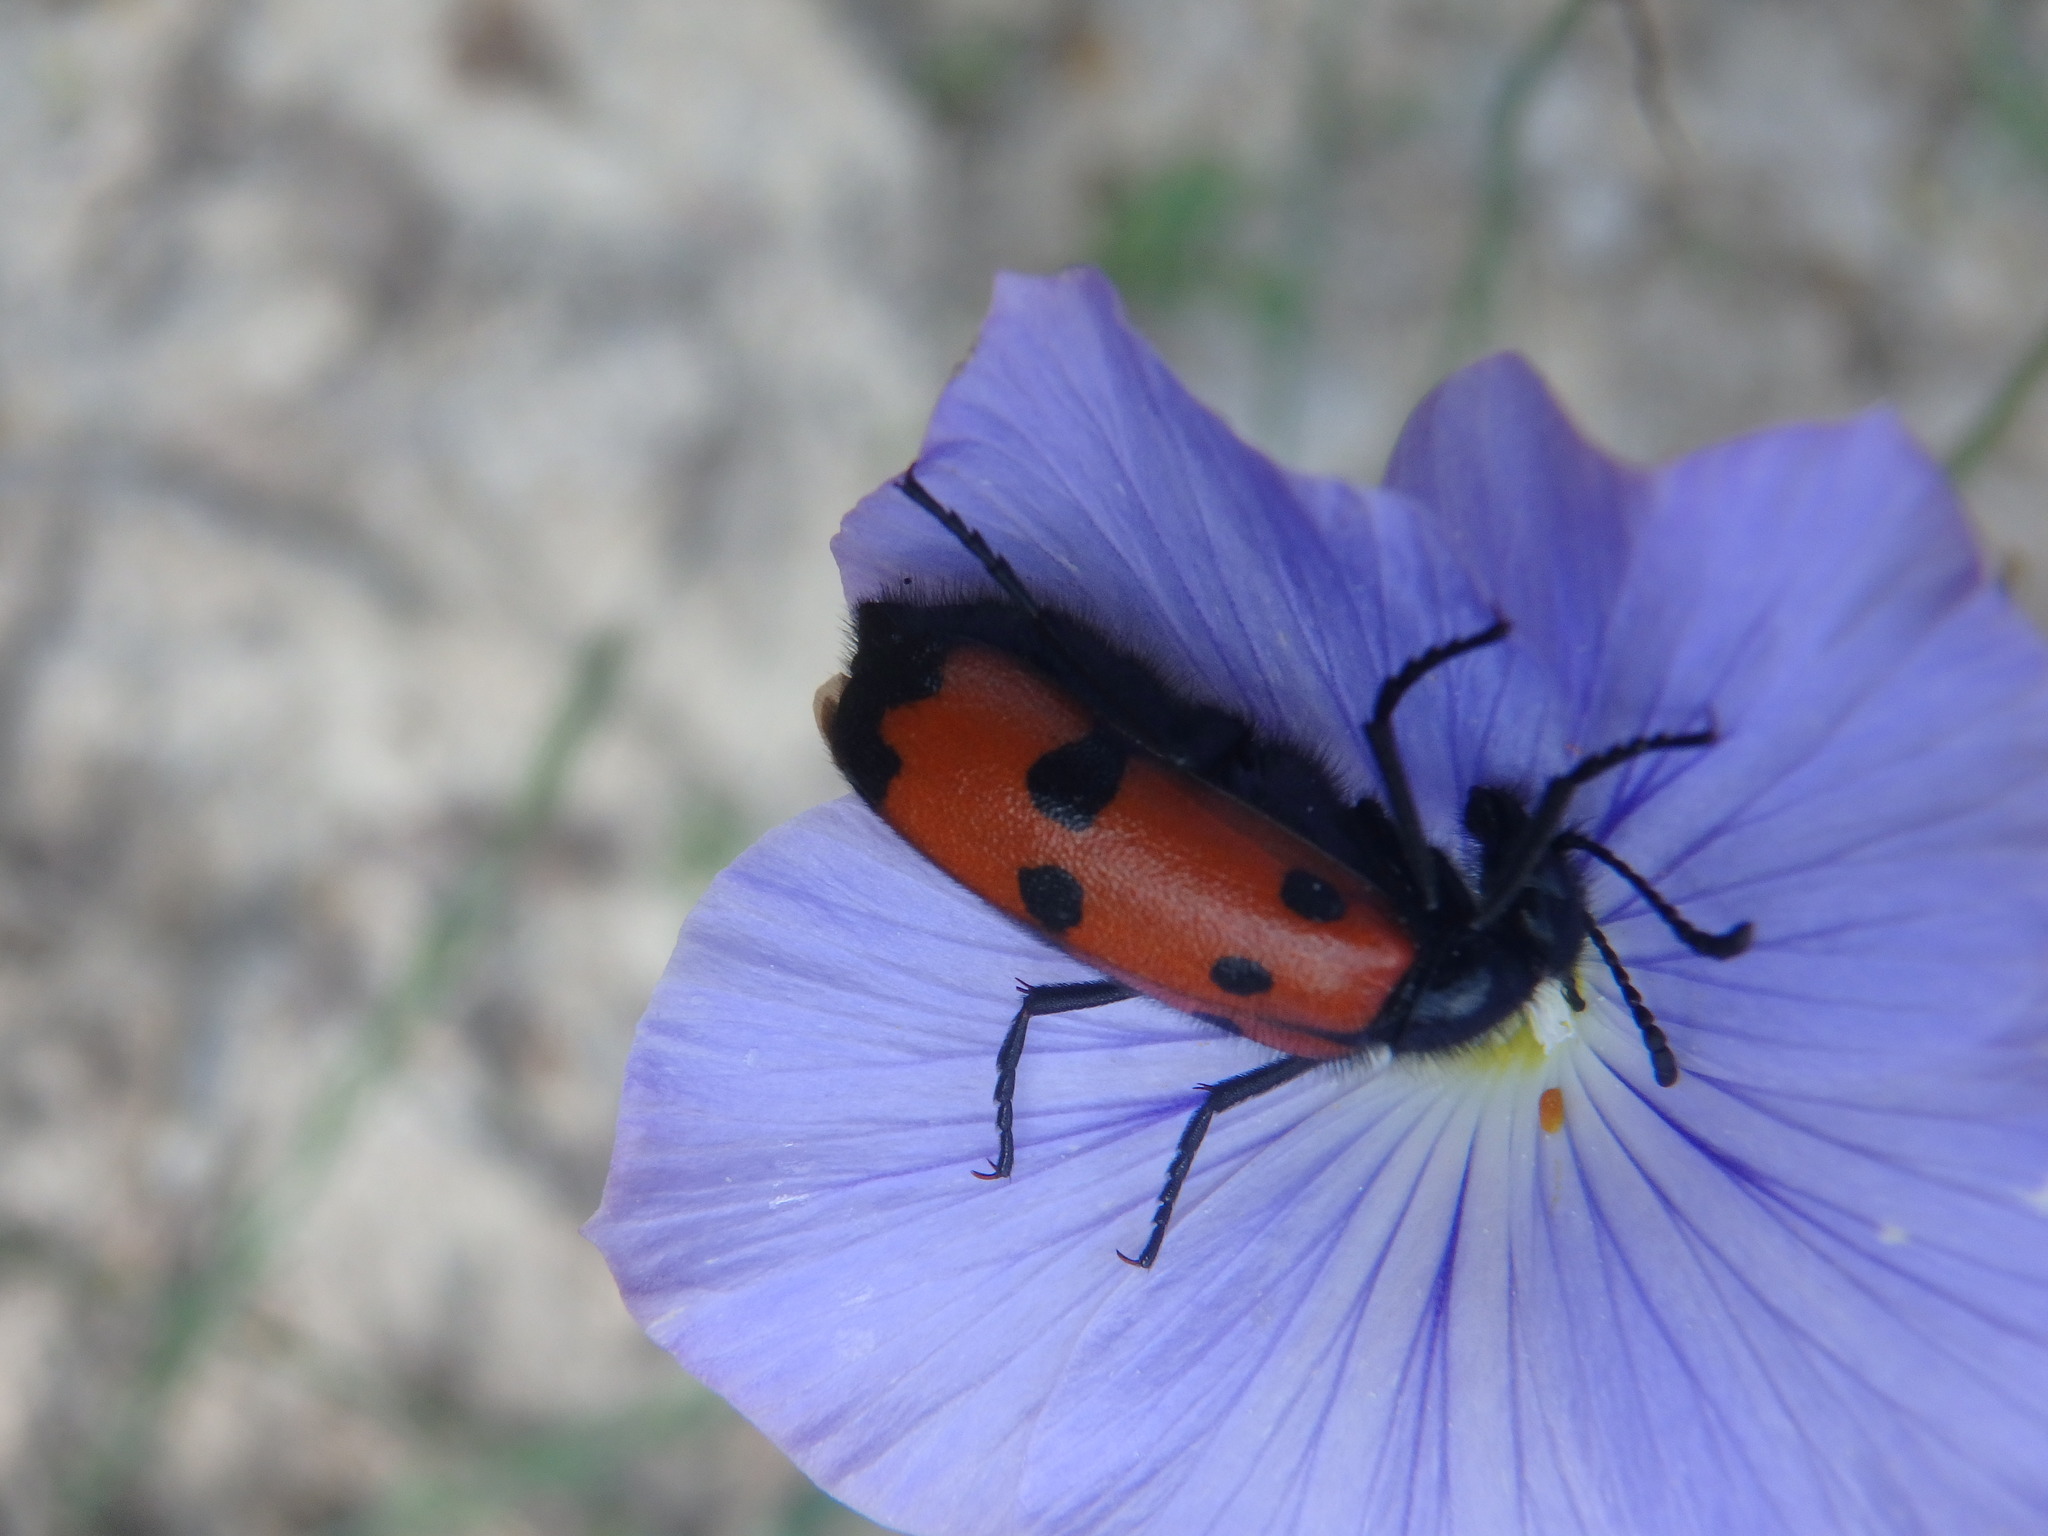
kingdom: Animalia
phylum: Arthropoda
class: Insecta
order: Coleoptera
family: Meloidae
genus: Mylabris
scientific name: Mylabris quadripunctata
